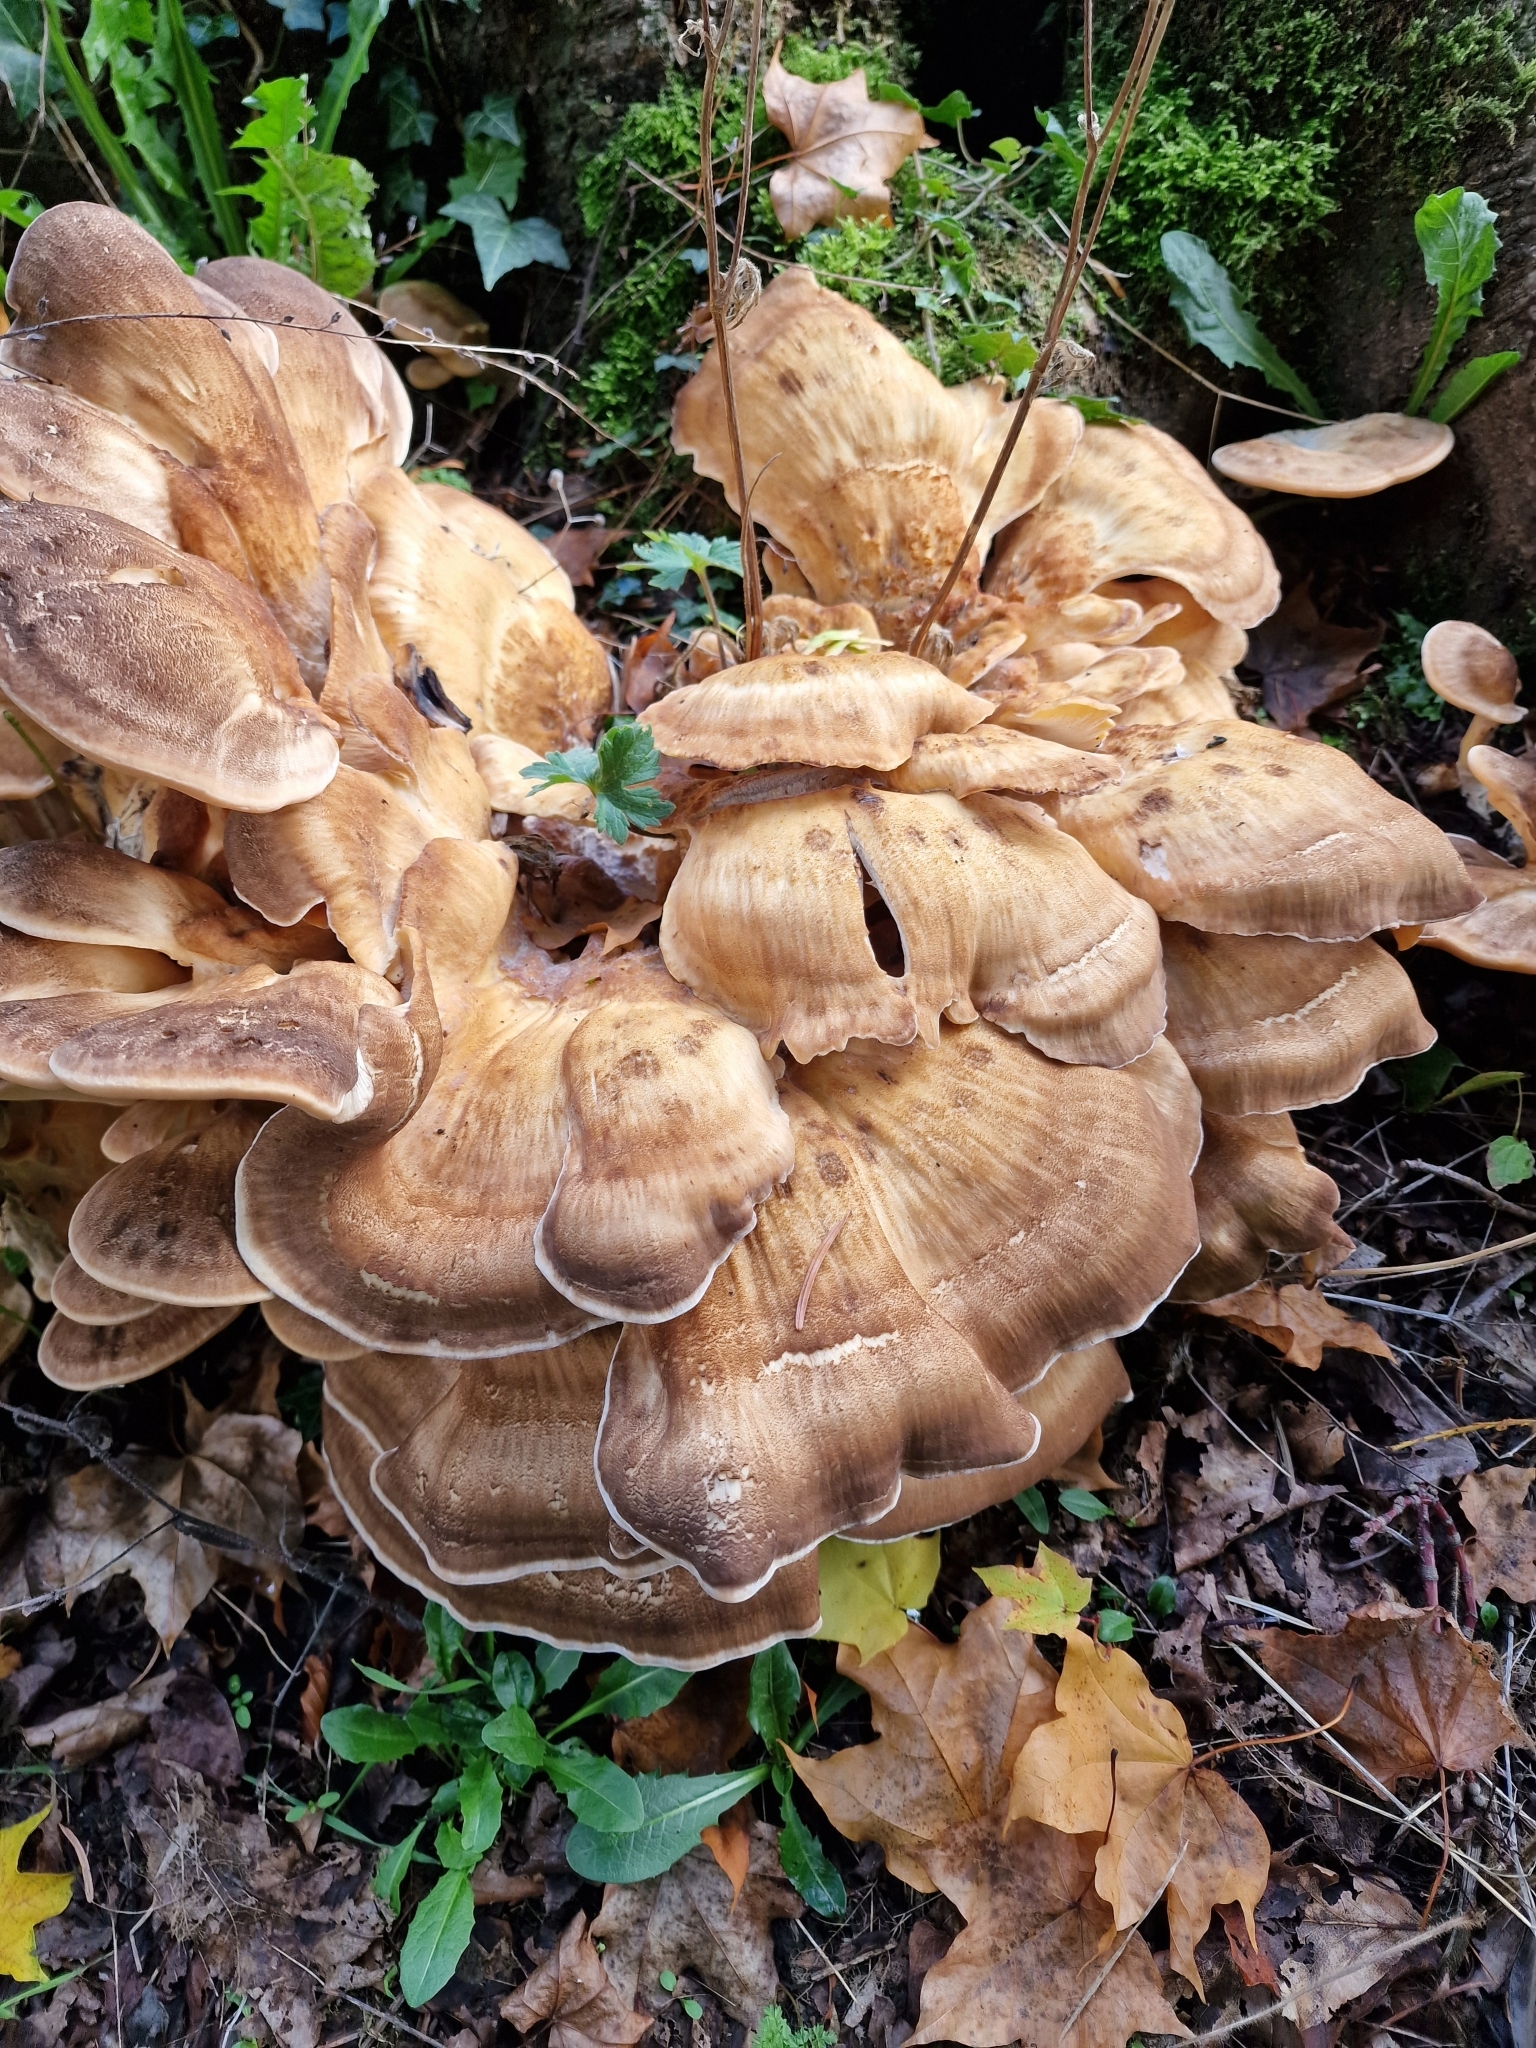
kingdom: Fungi
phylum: Basidiomycota
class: Agaricomycetes
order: Polyporales
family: Meripilaceae
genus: Meripilus
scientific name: Meripilus giganteus
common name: Giant polypore
